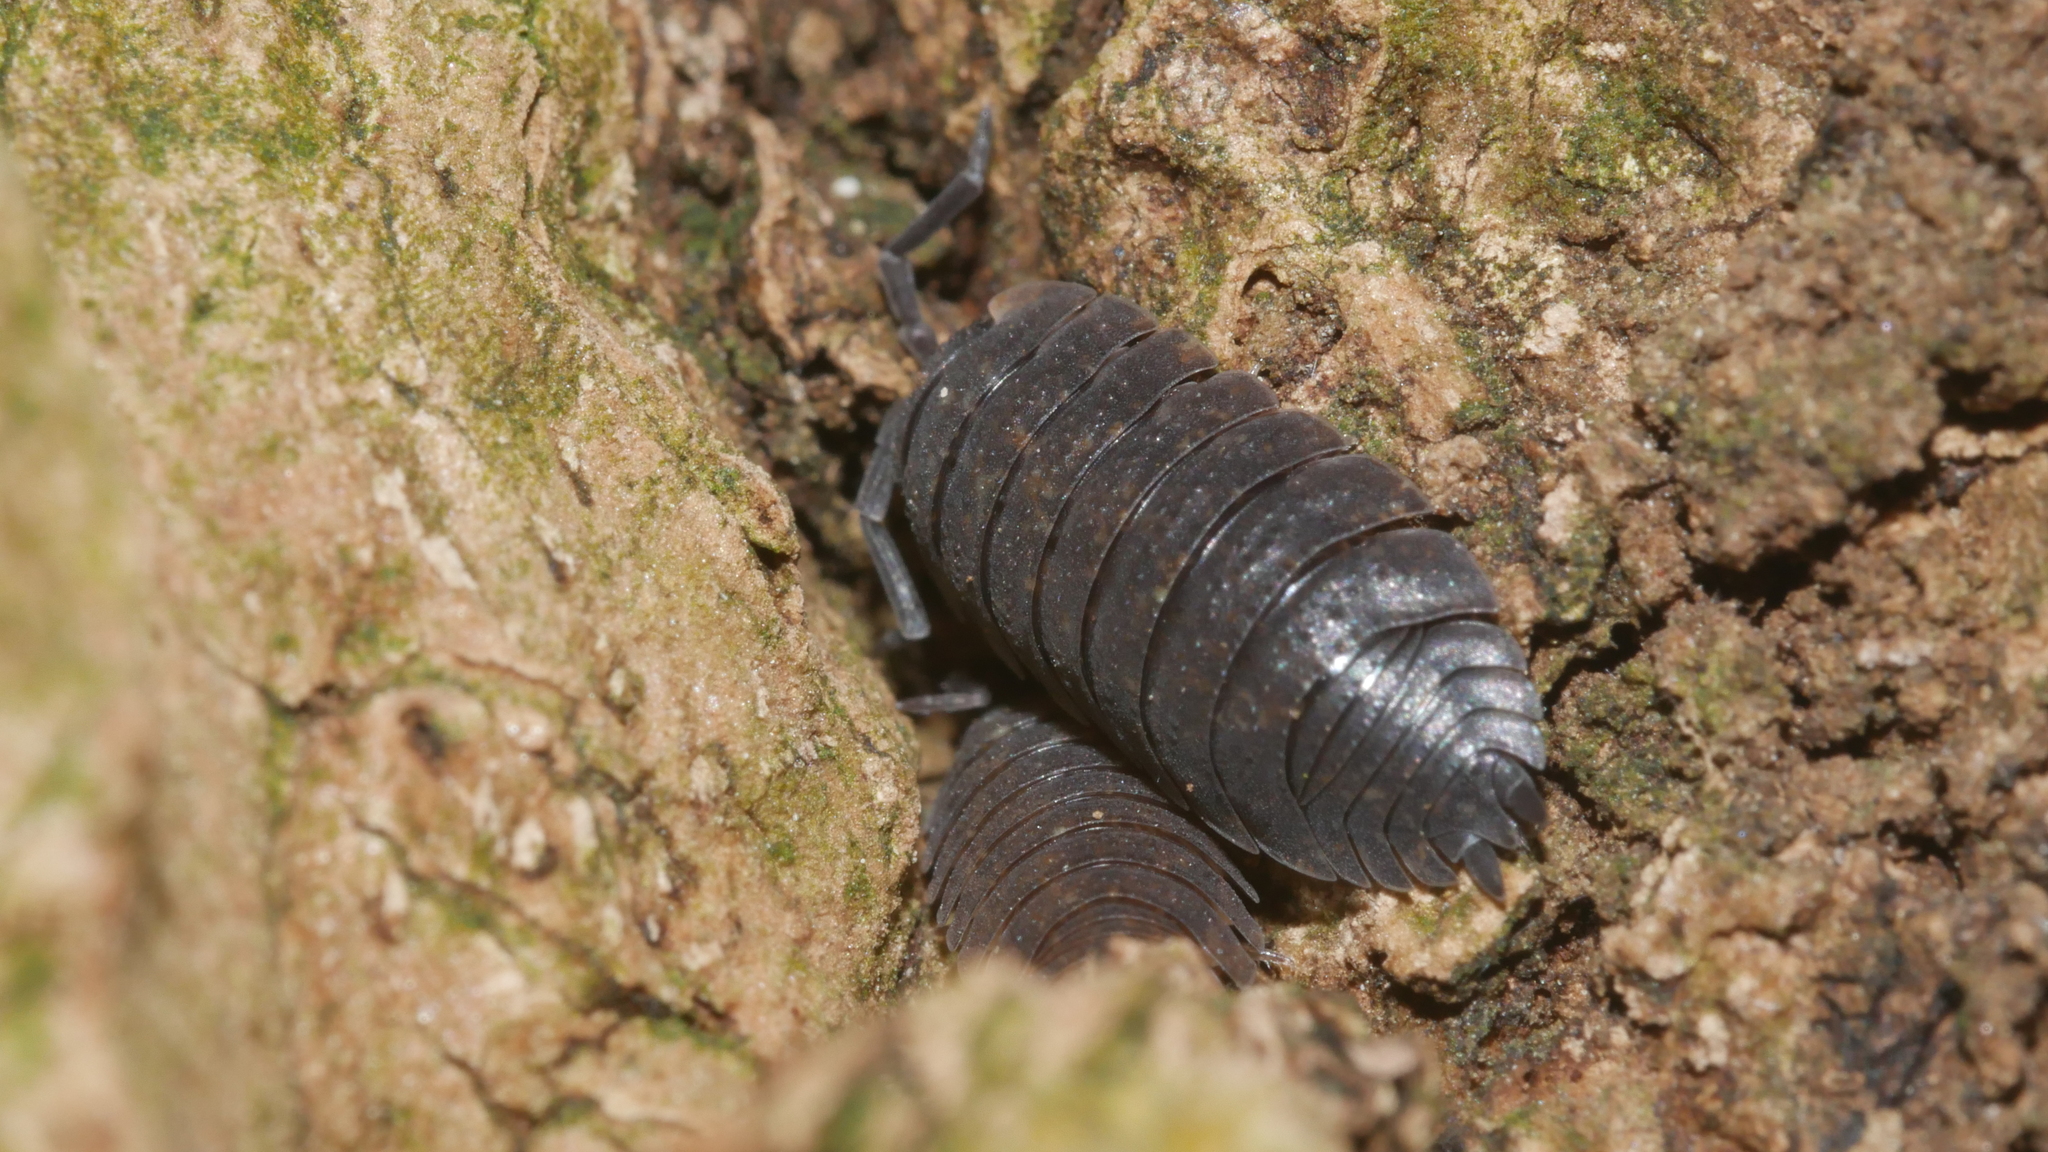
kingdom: Animalia
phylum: Arthropoda
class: Malacostraca
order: Isopoda
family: Porcellionidae
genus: Porcellio
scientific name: Porcellio scaber
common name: Common rough woodlouse
